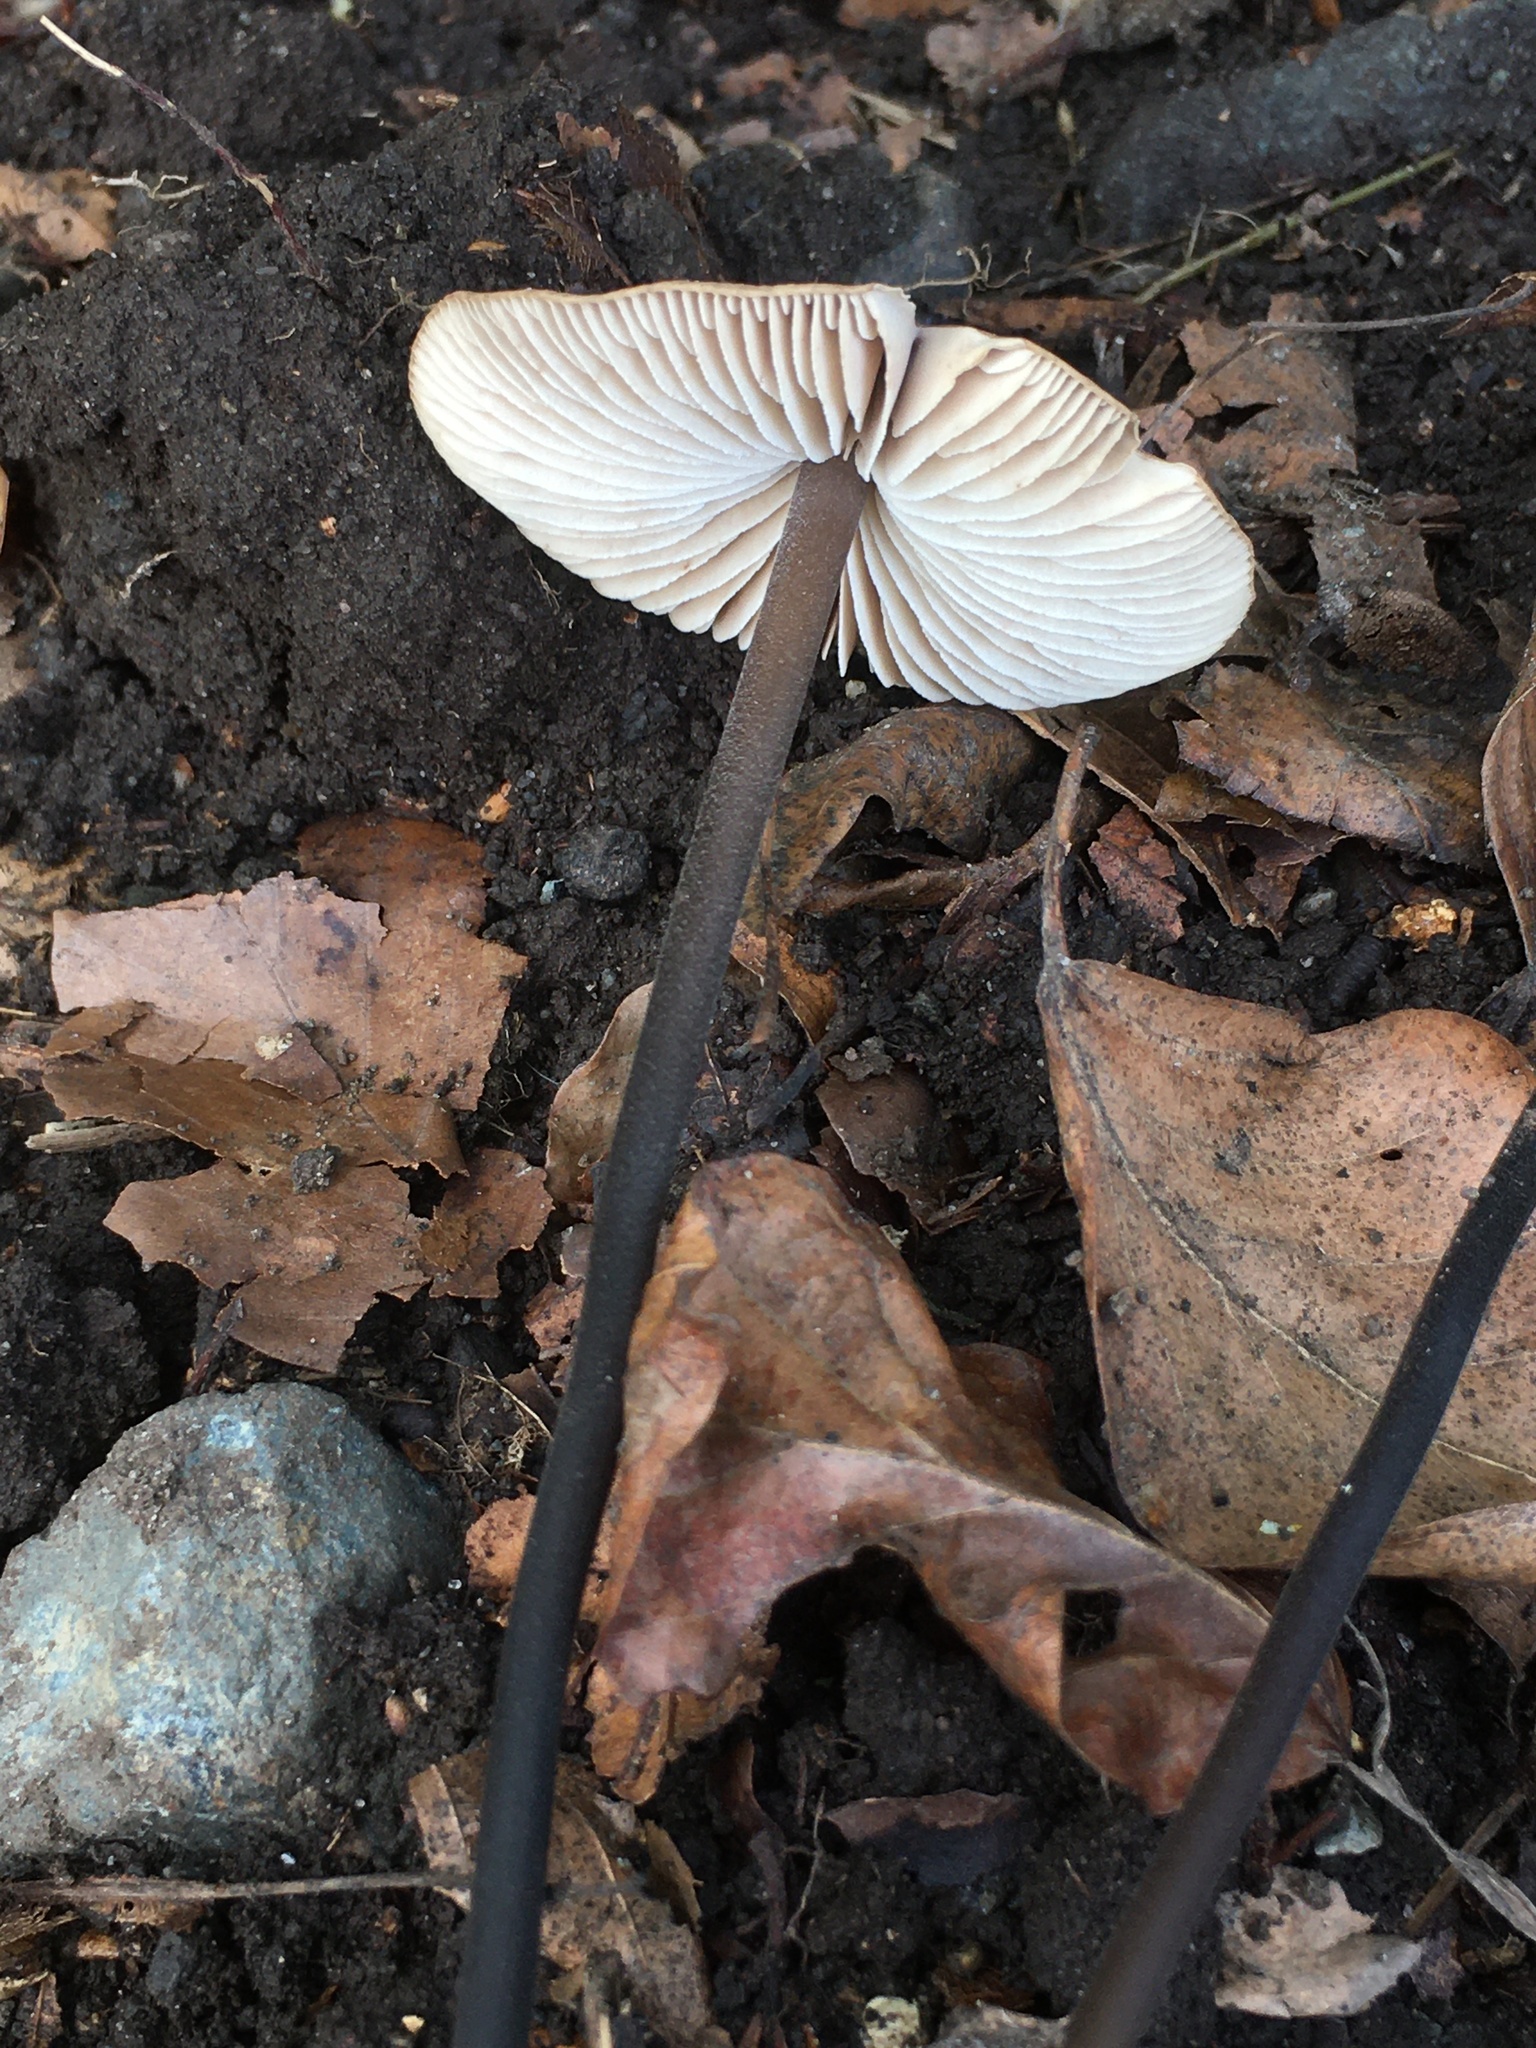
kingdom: Fungi
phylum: Basidiomycota
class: Agaricomycetes
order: Agaricales
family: Omphalotaceae
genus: Mycetinis
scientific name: Mycetinis alliaceus
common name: Garlic parachute
